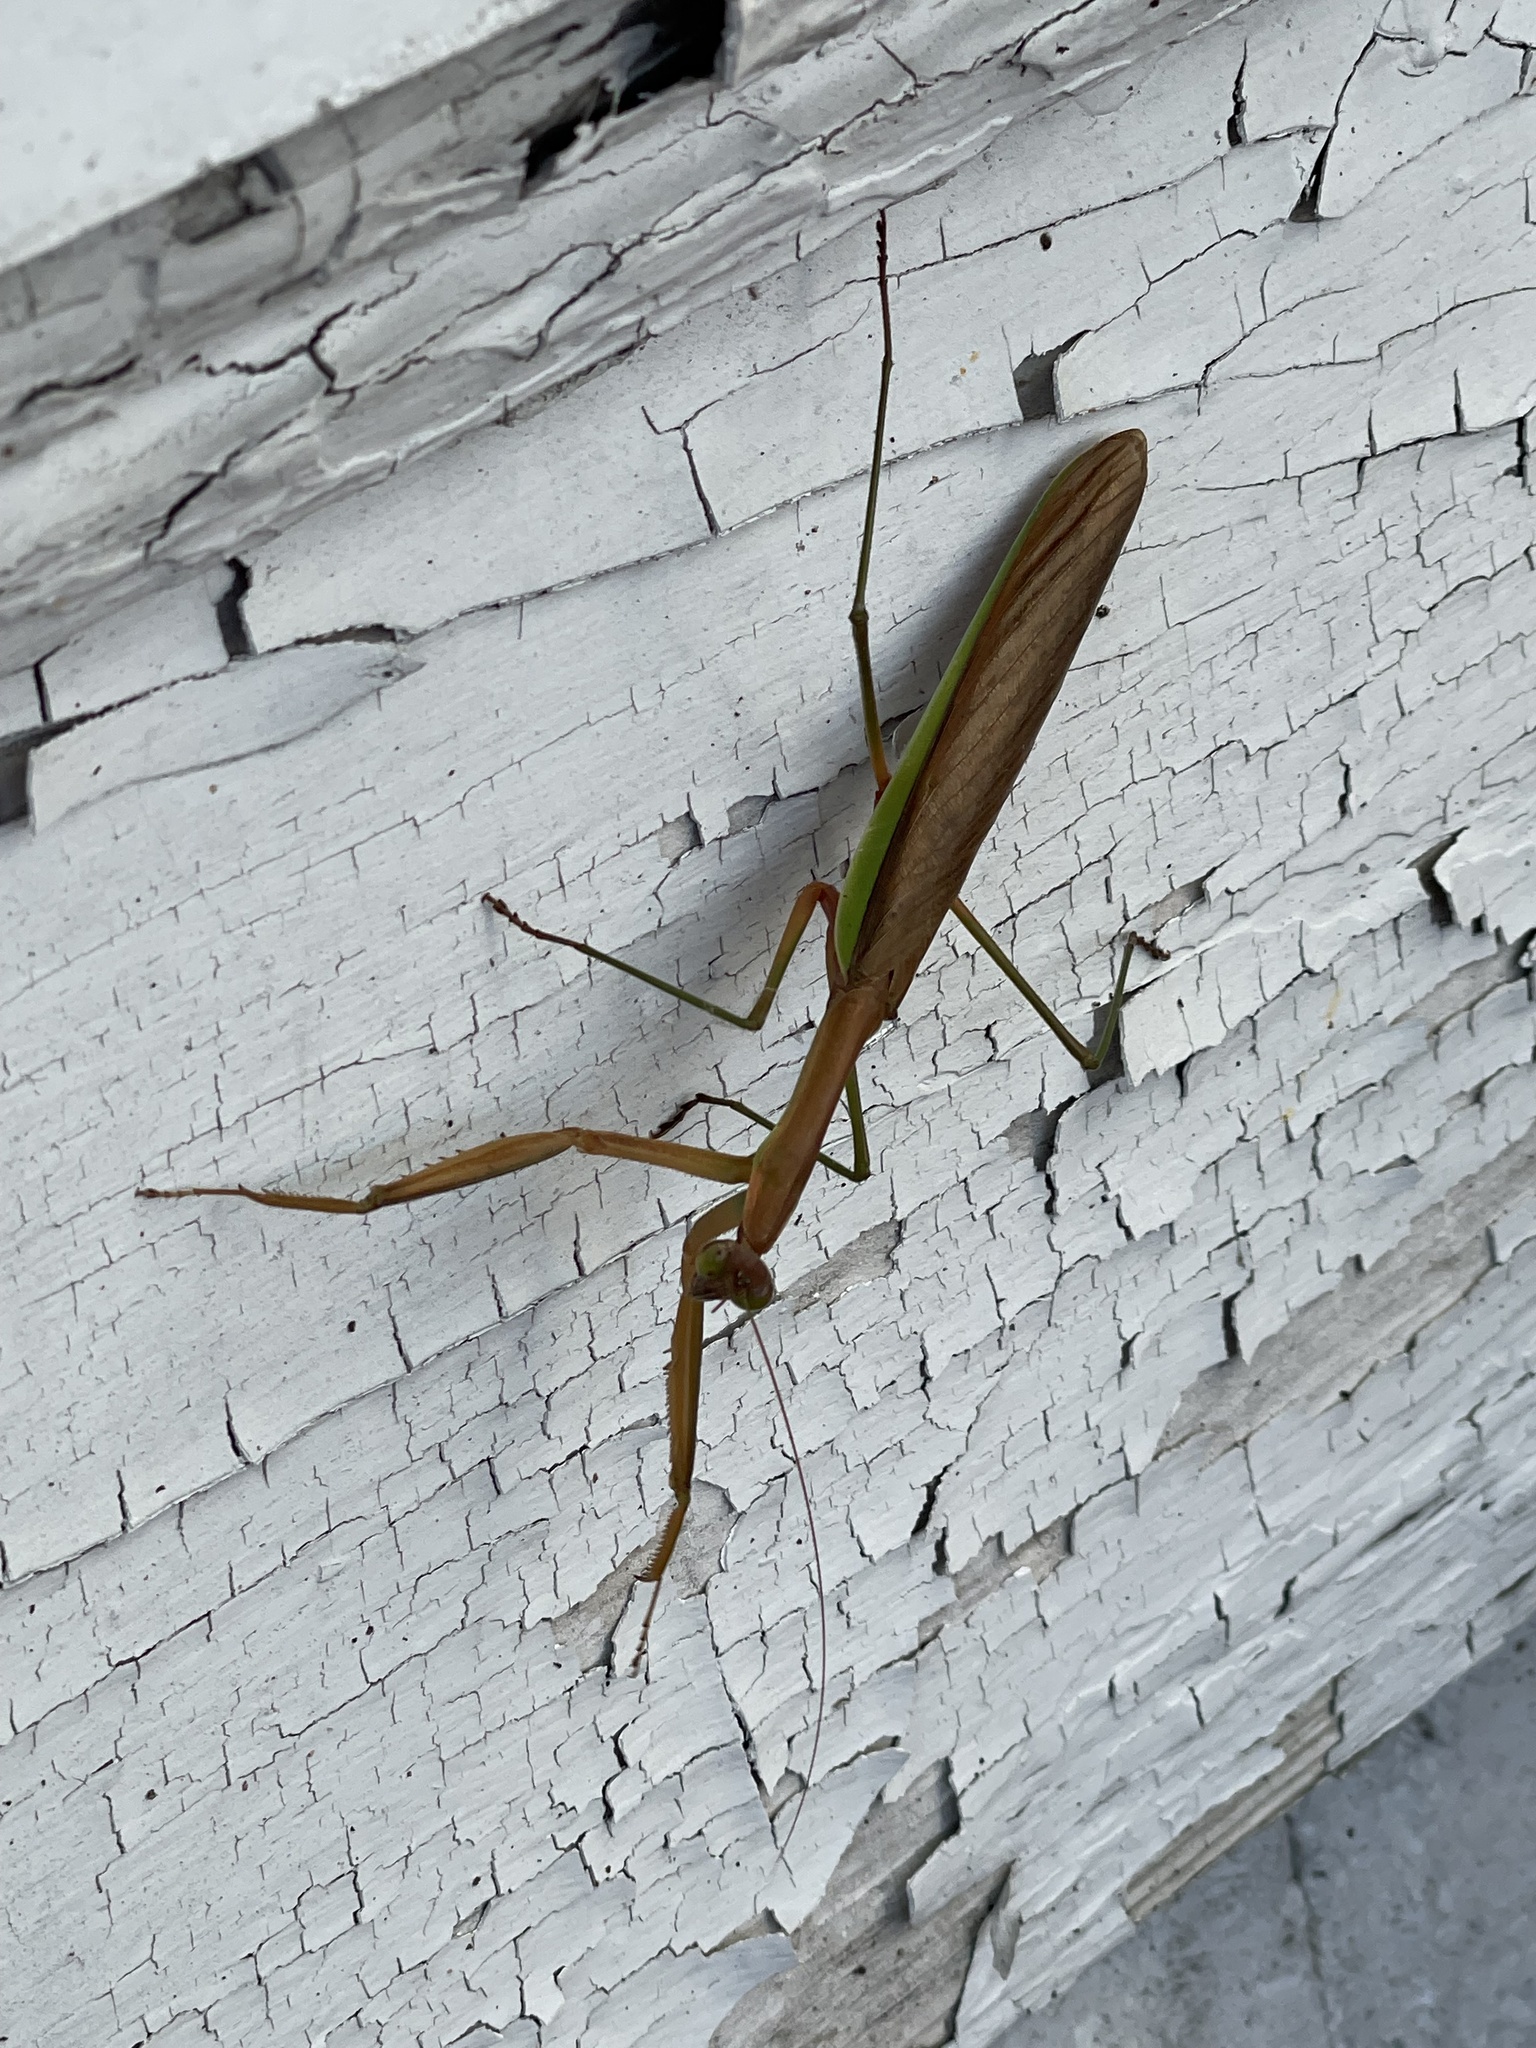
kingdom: Animalia
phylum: Arthropoda
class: Insecta
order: Mantodea
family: Mantidae
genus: Tenodera
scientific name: Tenodera sinensis
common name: Chinese mantis
